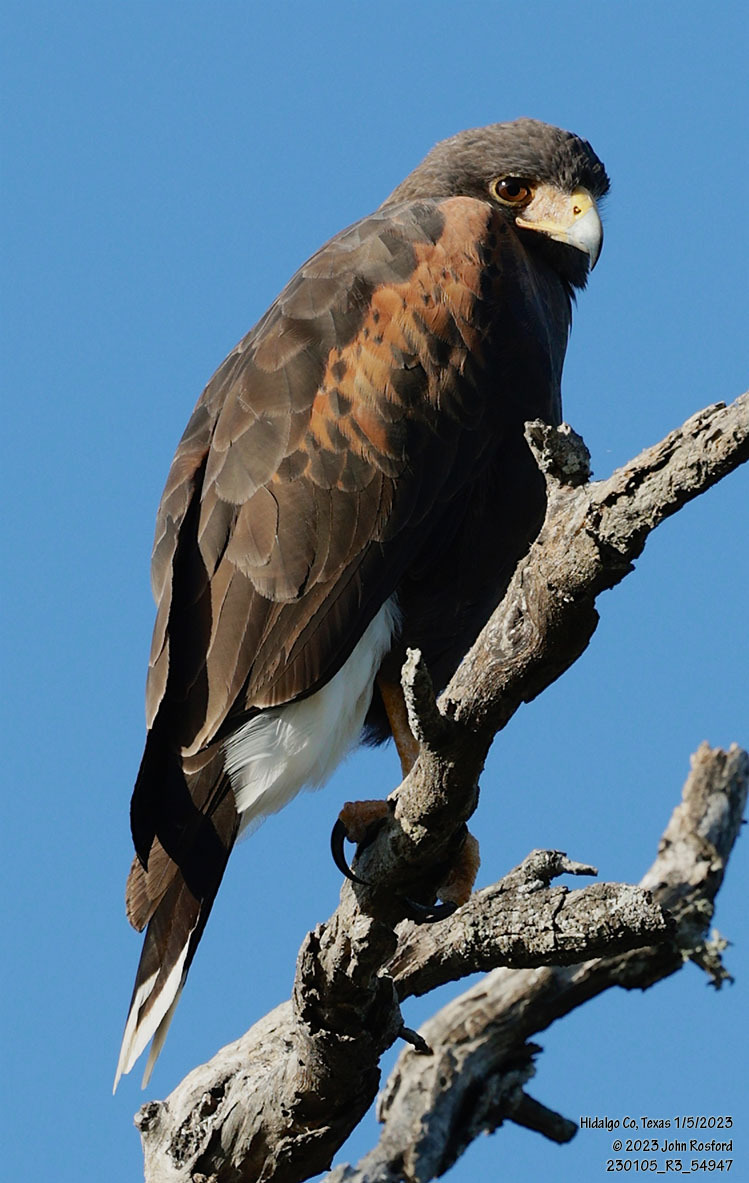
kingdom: Animalia
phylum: Chordata
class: Aves
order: Accipitriformes
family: Accipitridae
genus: Parabuteo
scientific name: Parabuteo unicinctus
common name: Harris's hawk
